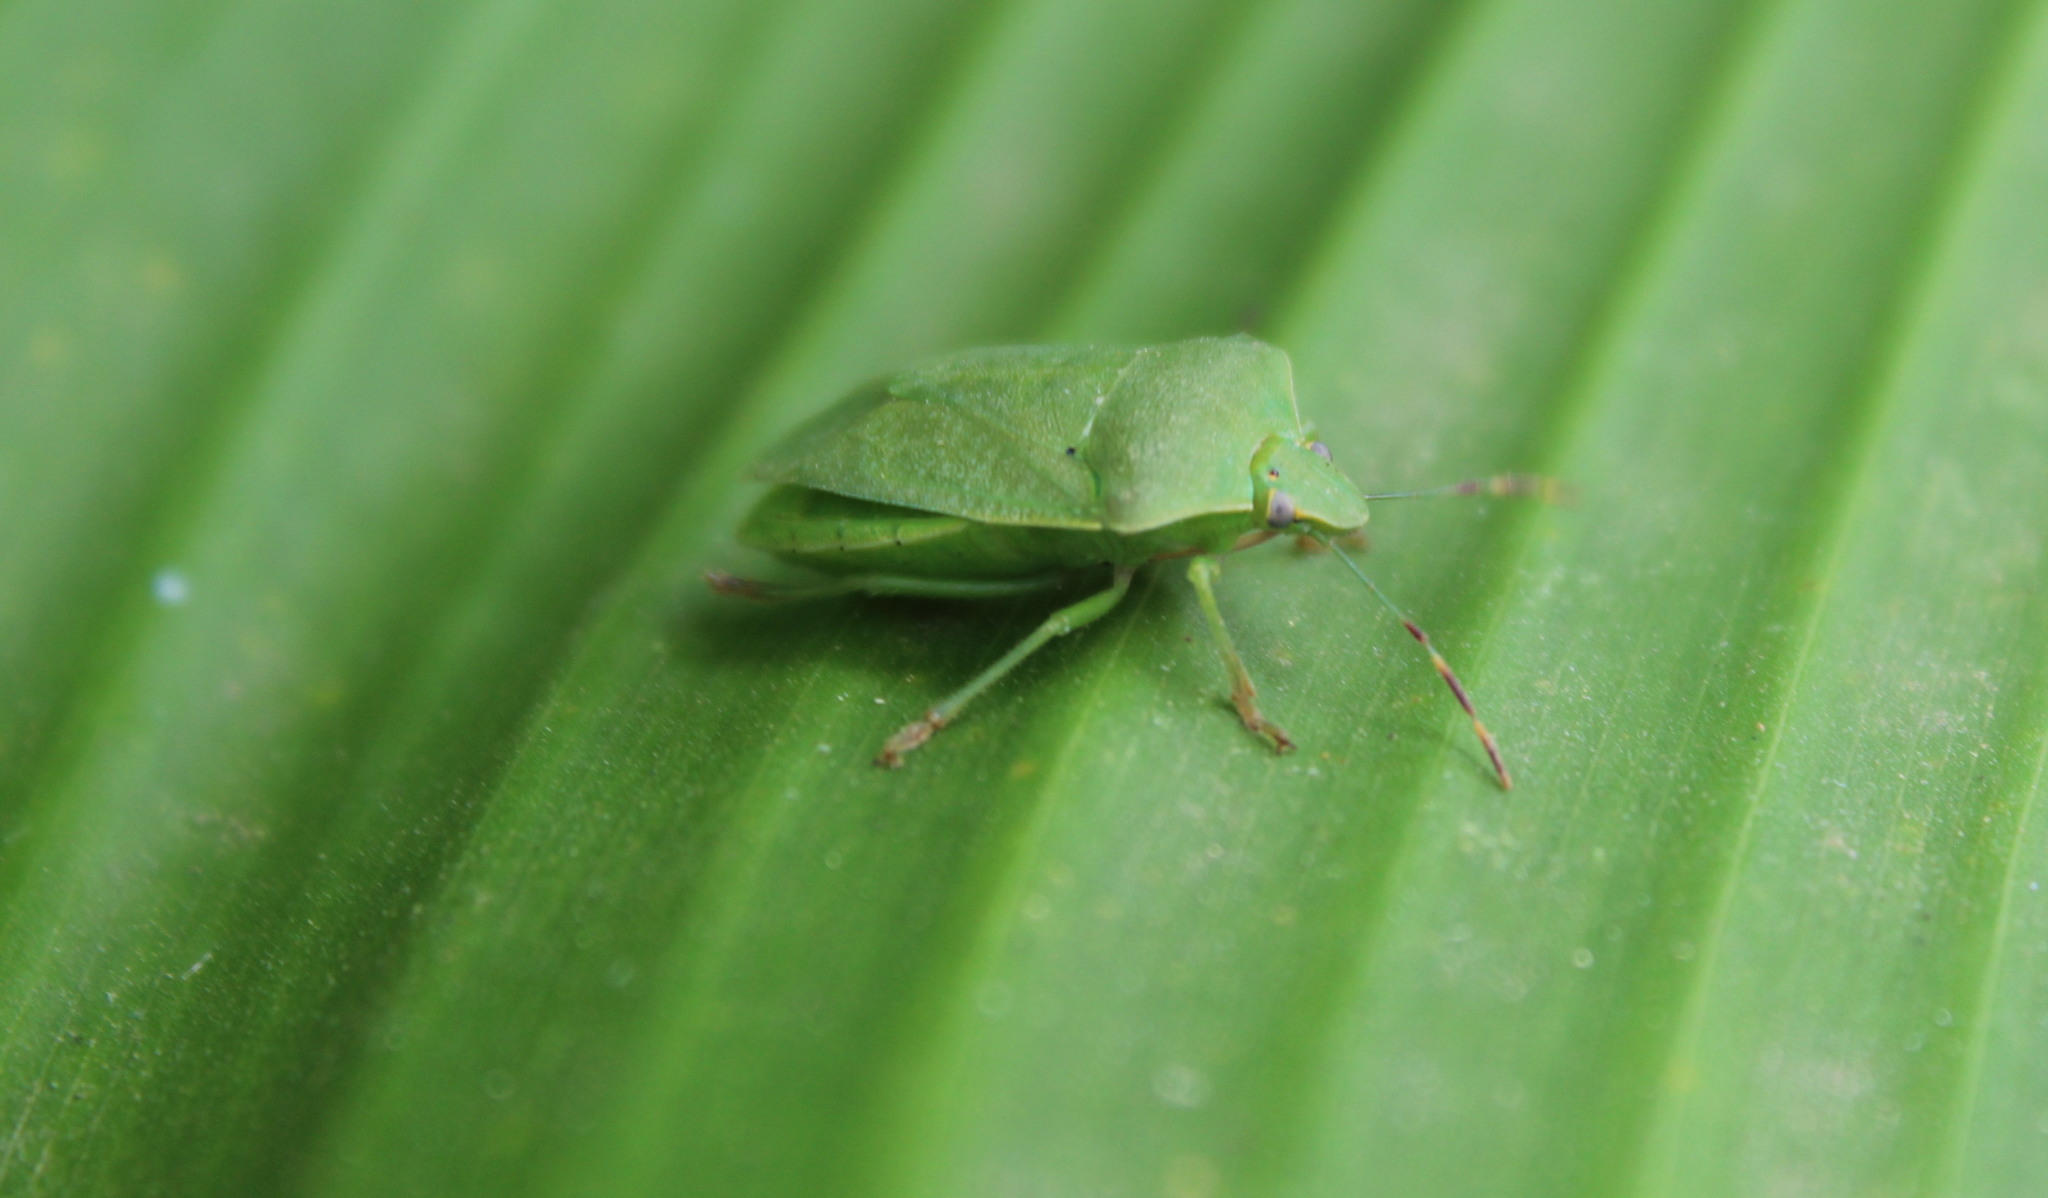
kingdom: Animalia
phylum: Arthropoda
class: Insecta
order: Hemiptera
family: Pentatomidae
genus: Nezara
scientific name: Nezara viridula
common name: Southern green stink bug
